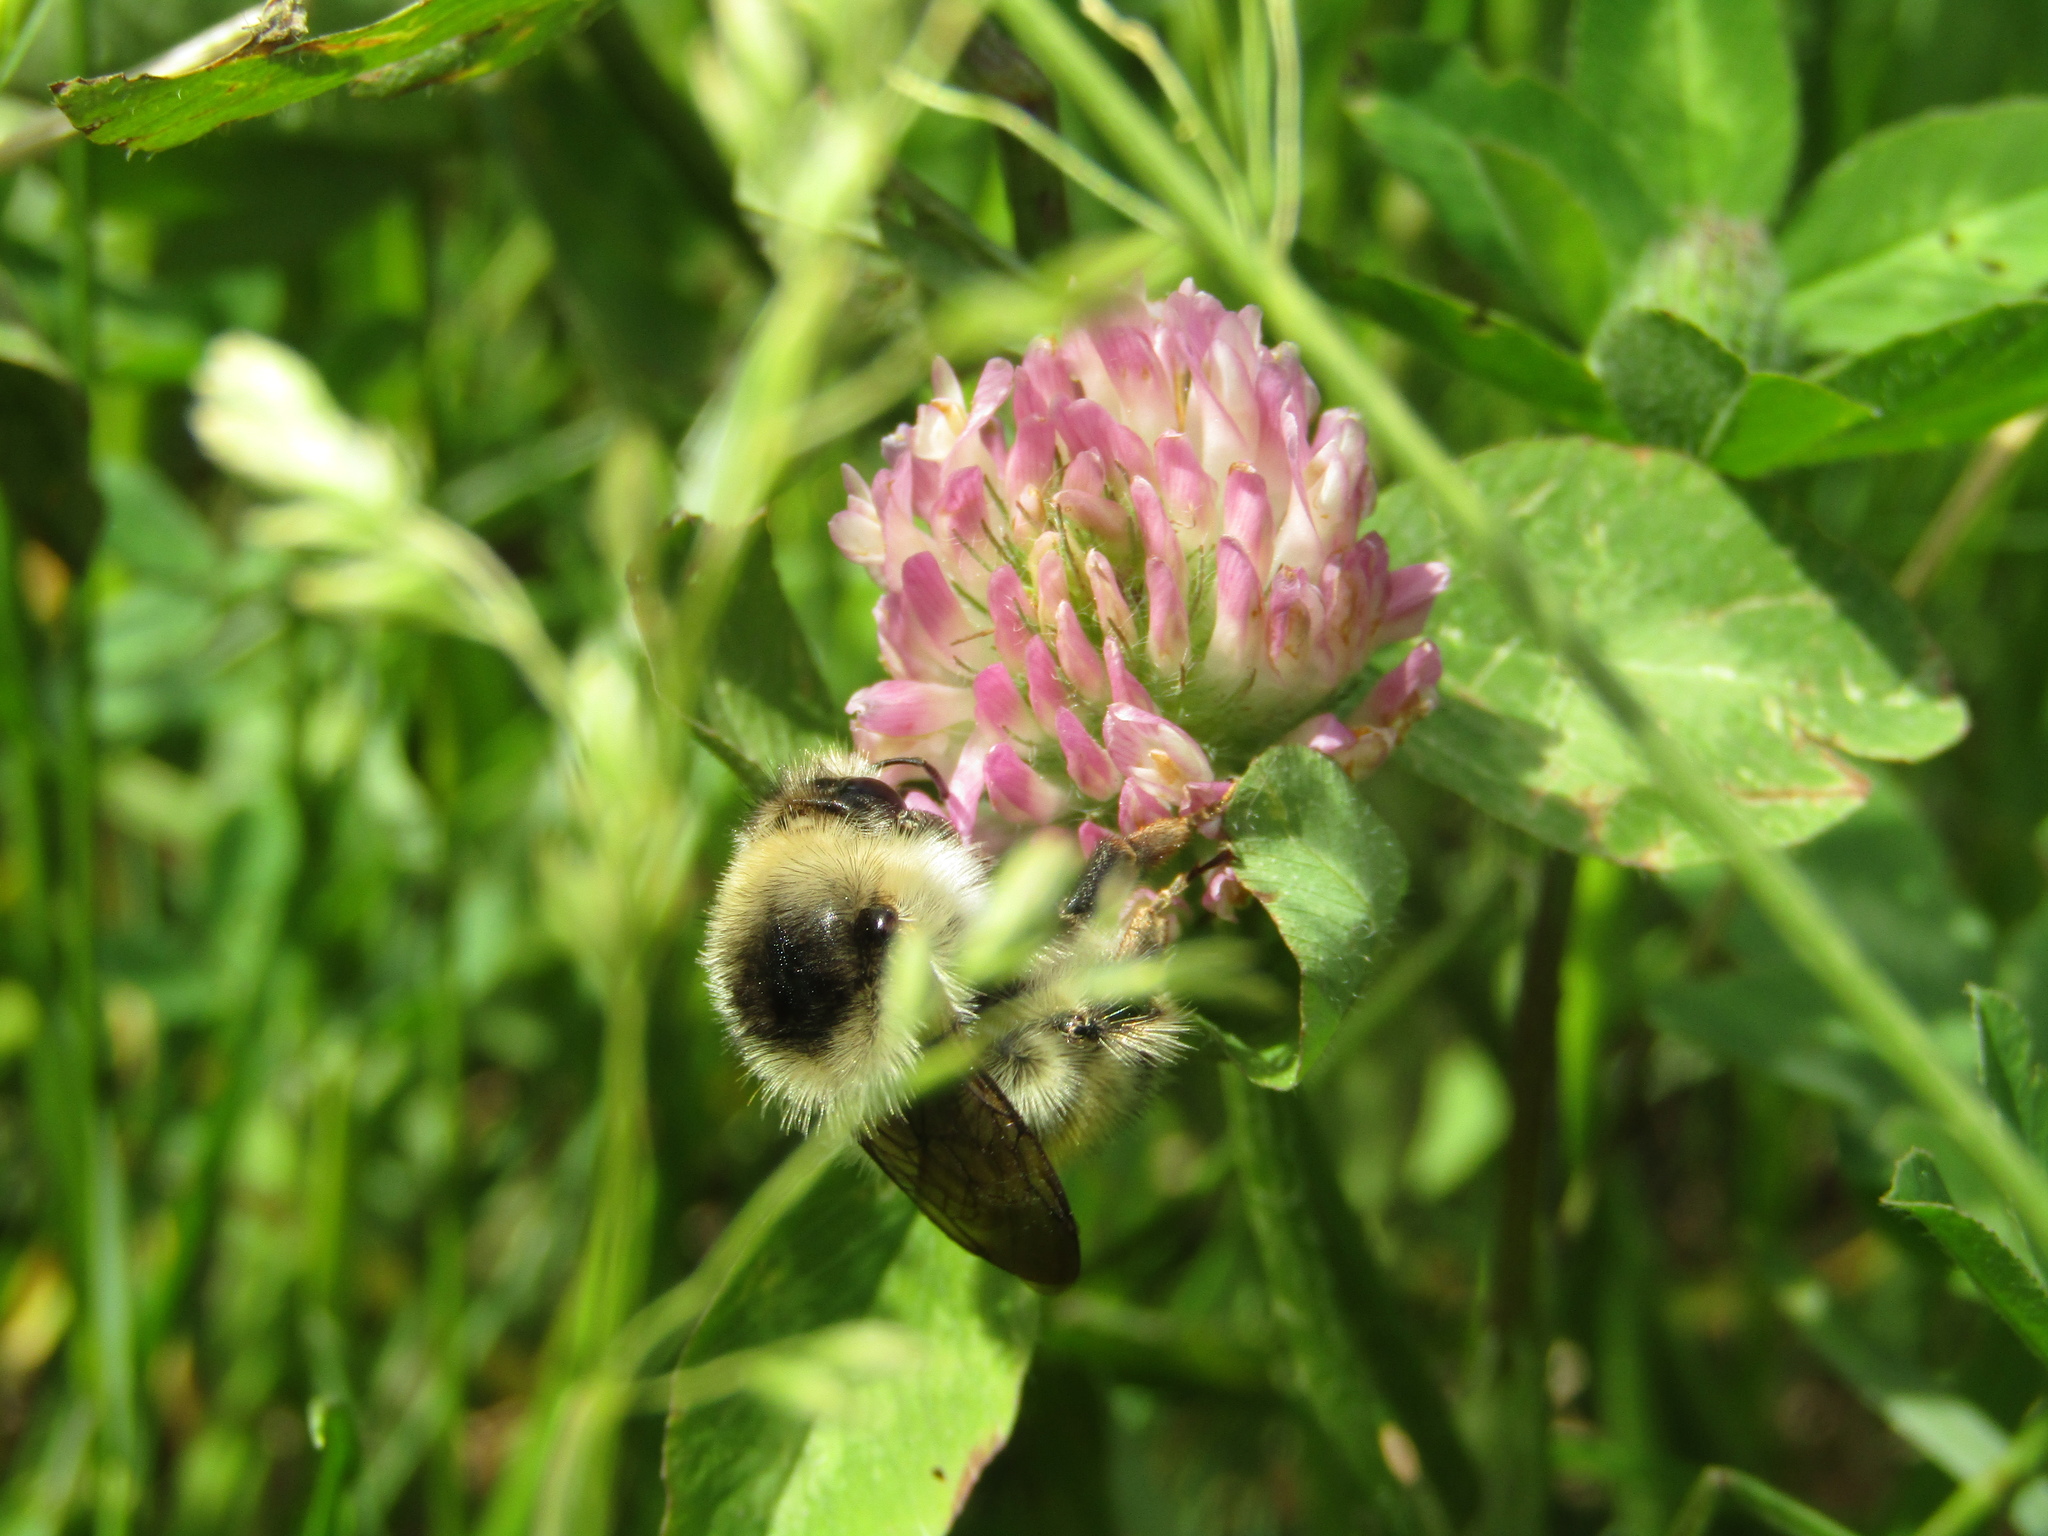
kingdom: Animalia
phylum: Arthropoda
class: Insecta
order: Hymenoptera
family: Apidae
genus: Bombus
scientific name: Bombus veteranus
